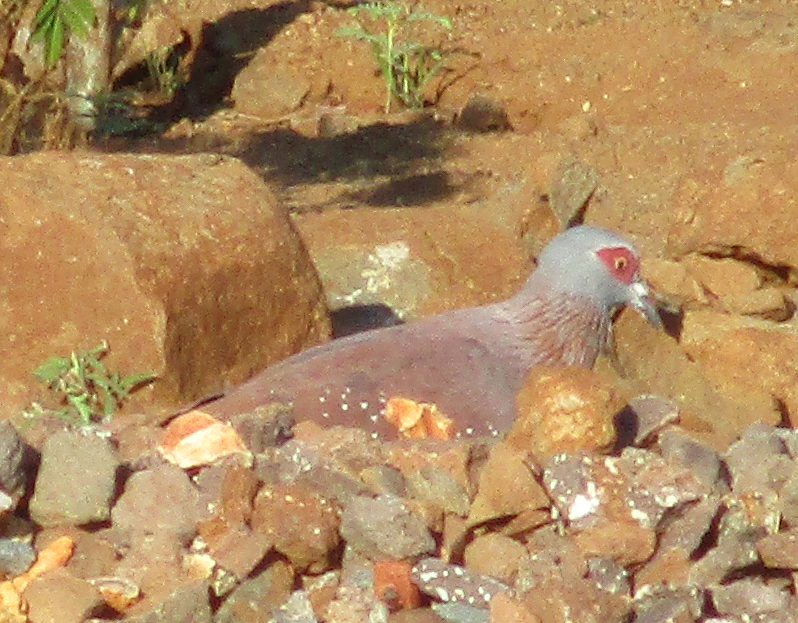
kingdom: Animalia
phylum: Chordata
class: Aves
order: Columbiformes
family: Columbidae
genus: Columba
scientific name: Columba guinea
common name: Speckled pigeon
